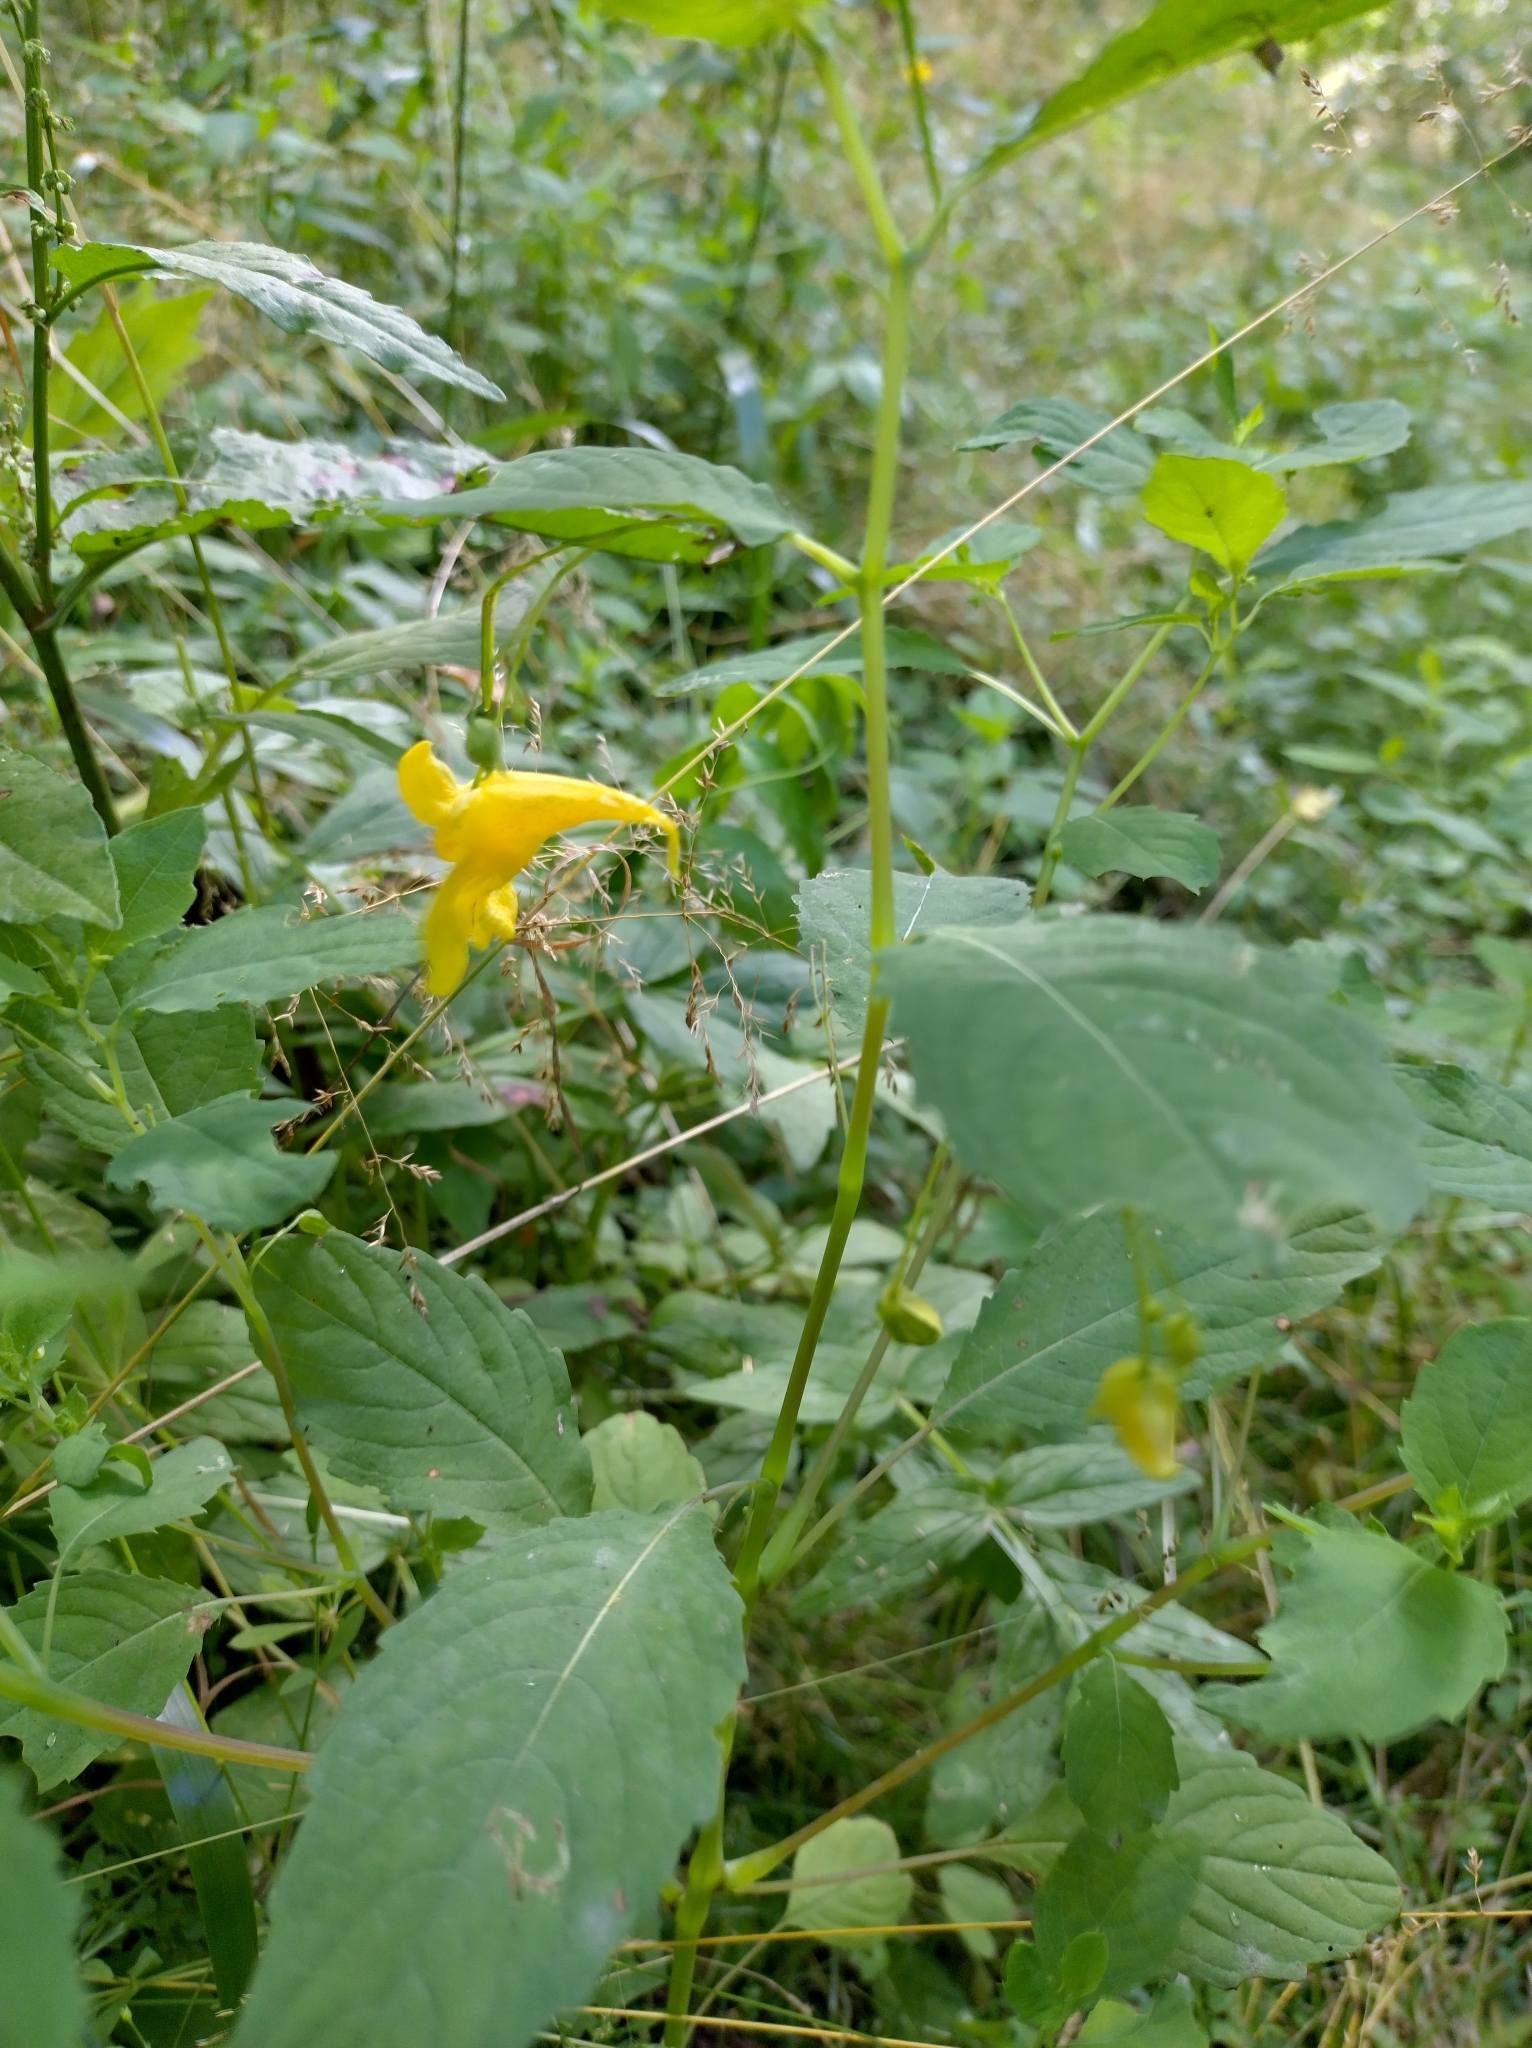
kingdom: Plantae
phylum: Tracheophyta
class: Magnoliopsida
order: Ericales
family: Balsaminaceae
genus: Impatiens
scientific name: Impatiens noli-tangere
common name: Touch-me-not balsam
